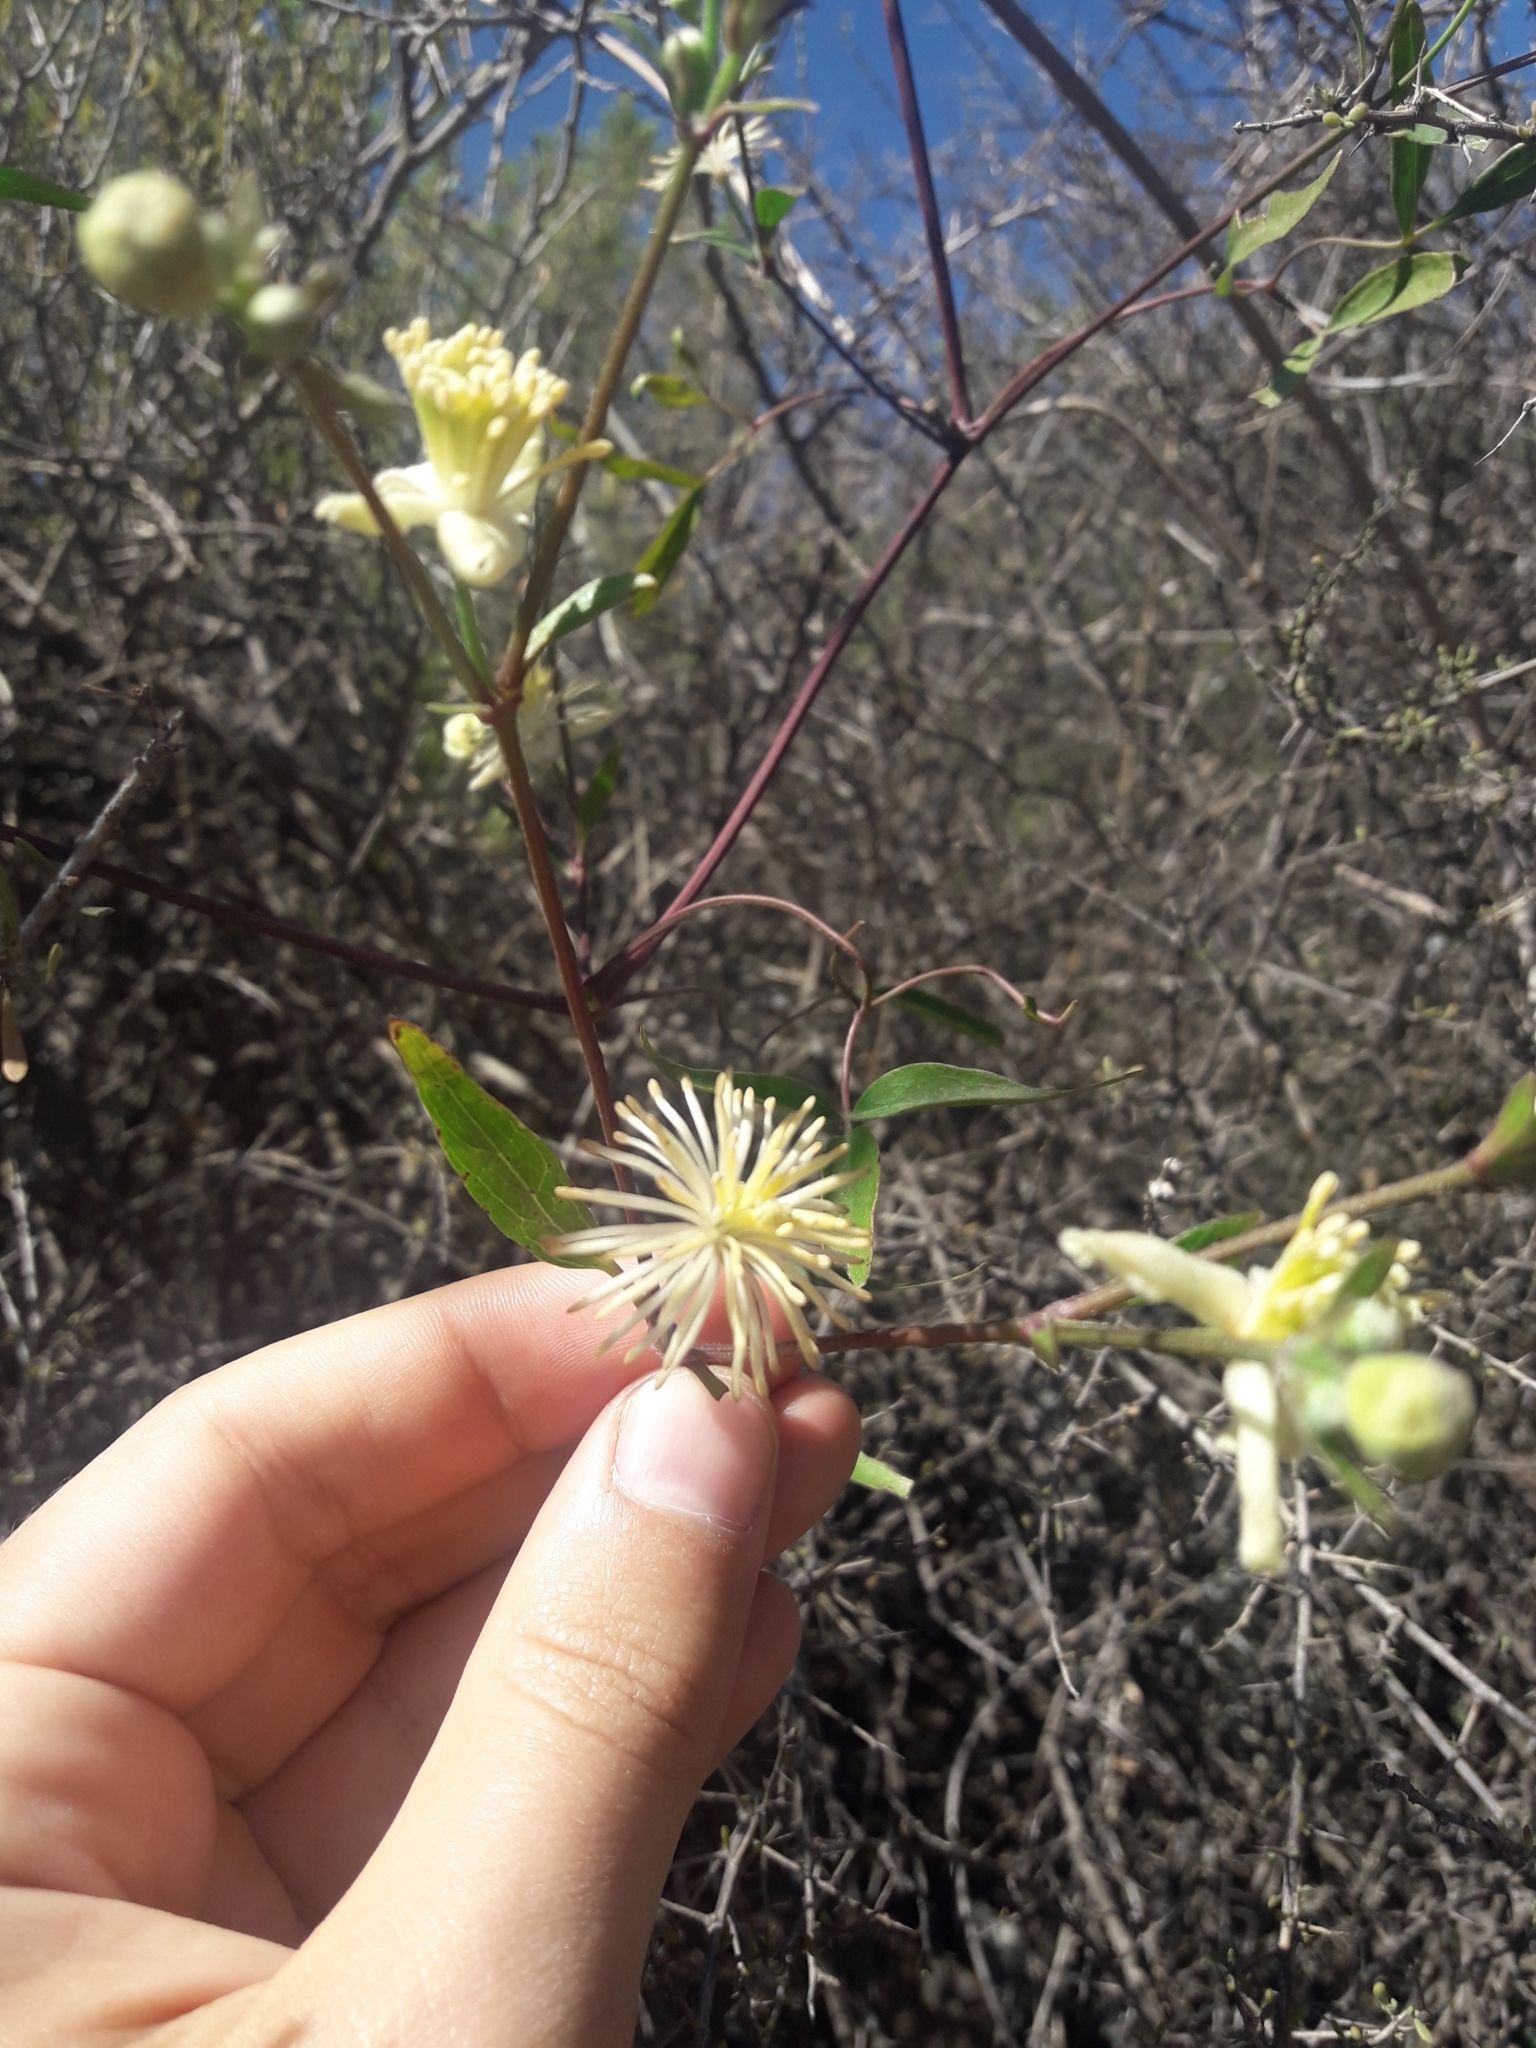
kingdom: Plantae
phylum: Tracheophyta
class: Magnoliopsida
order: Ranunculales
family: Ranunculaceae
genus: Clematis
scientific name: Clematis montevidensis
